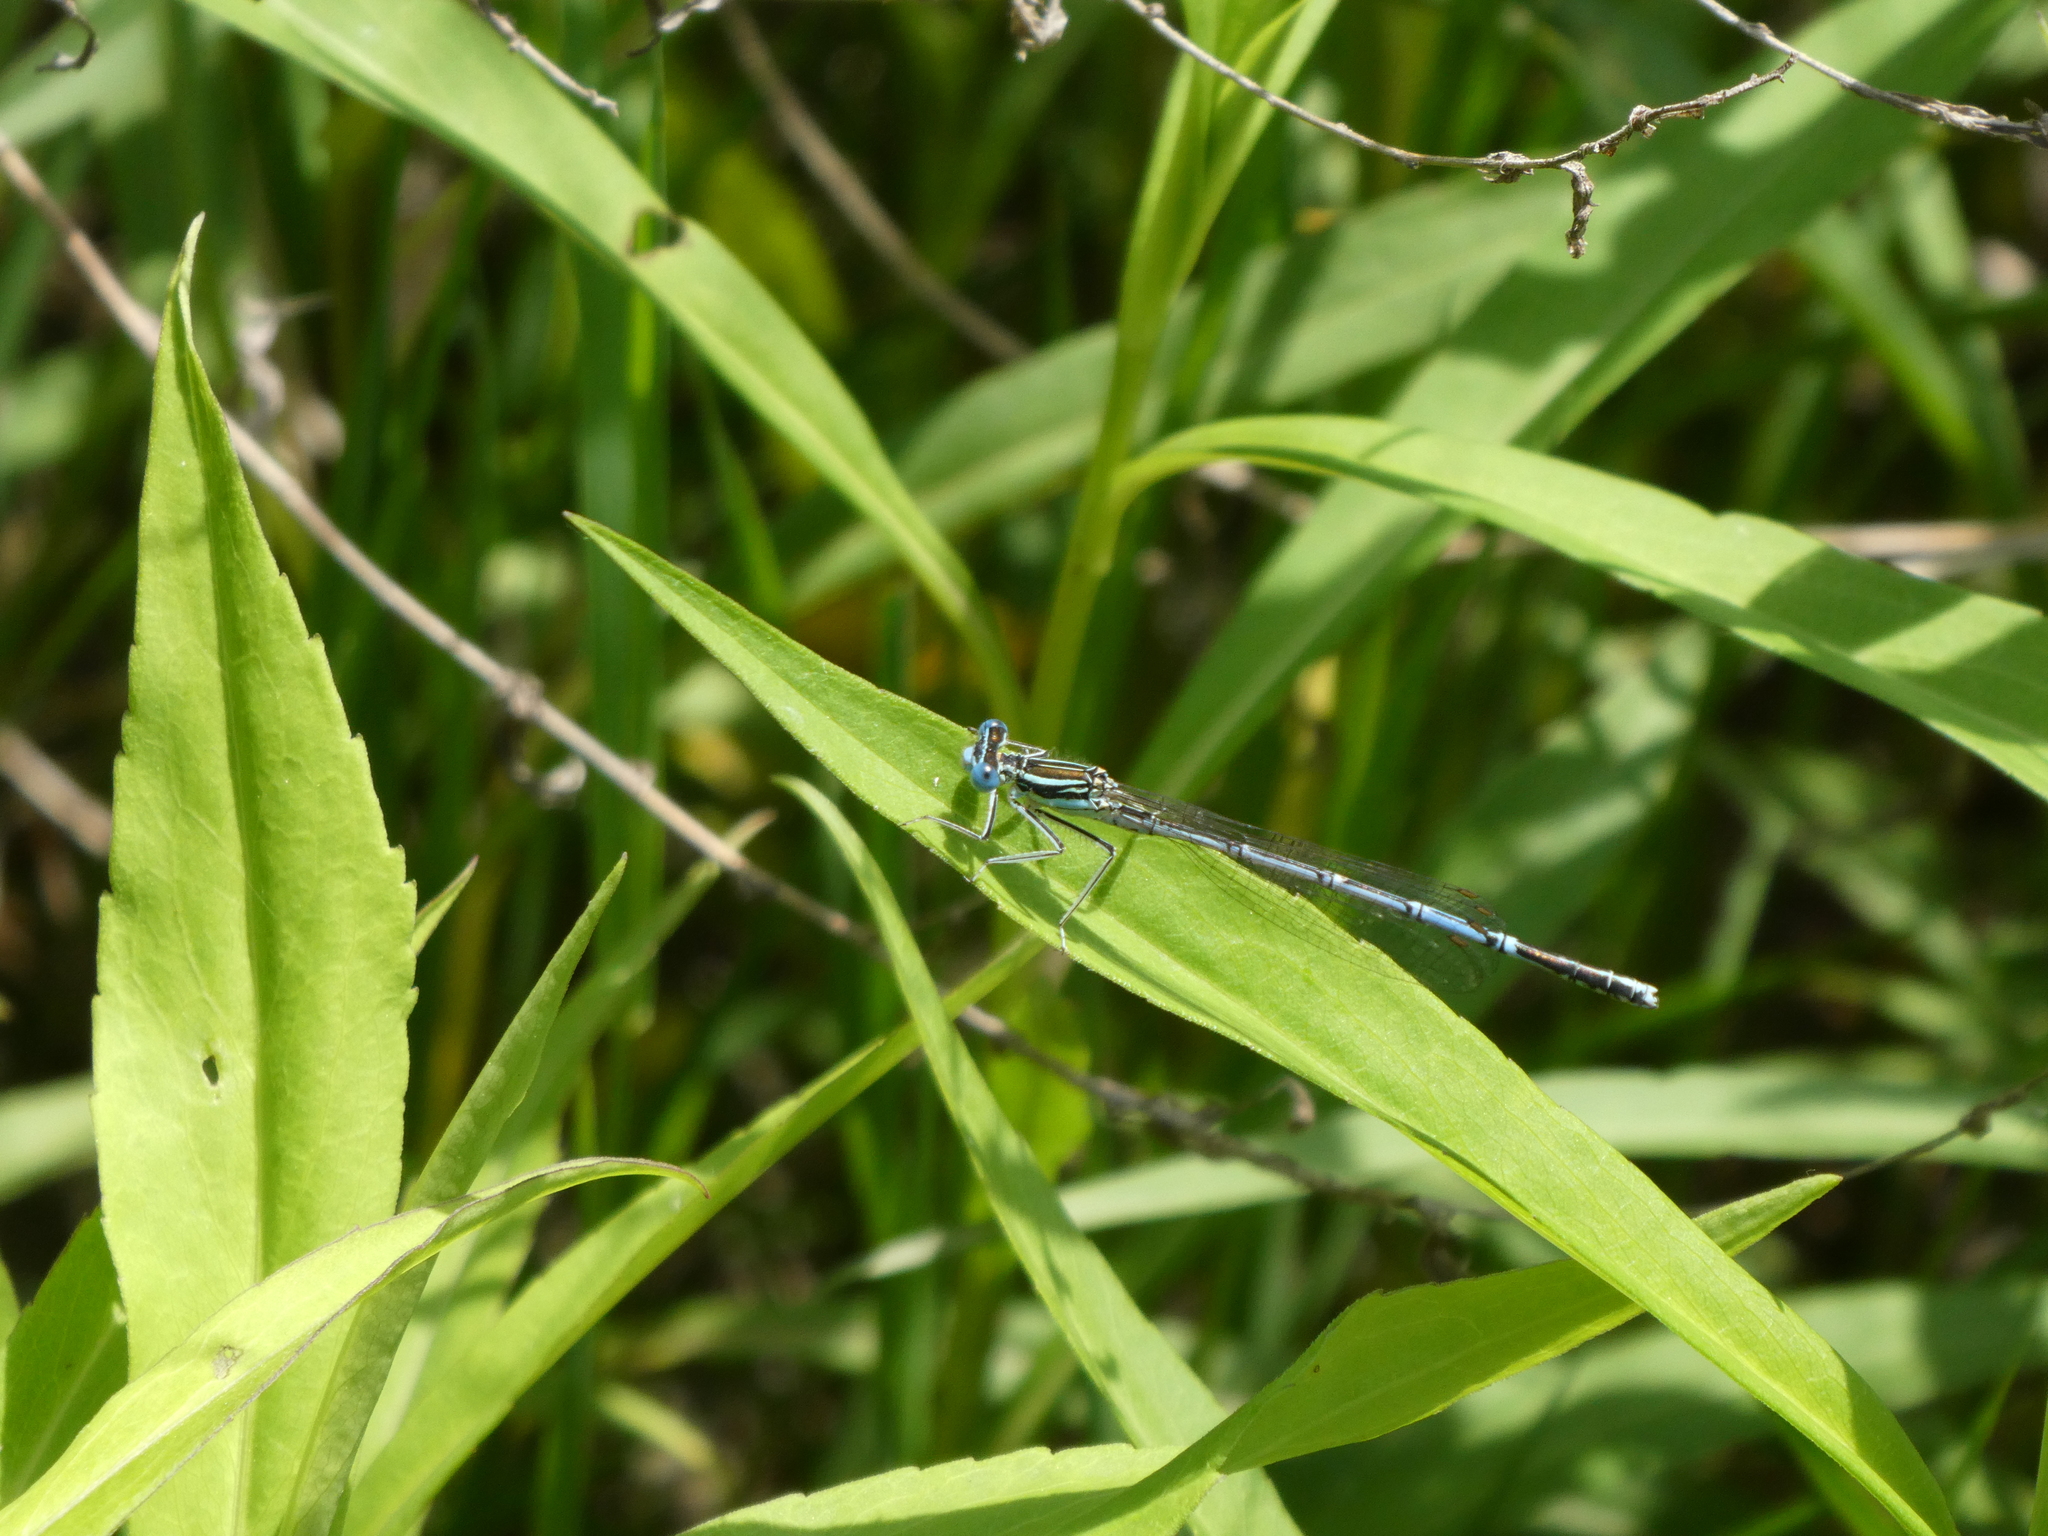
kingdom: Animalia
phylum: Arthropoda
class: Insecta
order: Odonata
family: Platycnemididae
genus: Platycnemis
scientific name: Platycnemis pennipes
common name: White-legged damselfly
